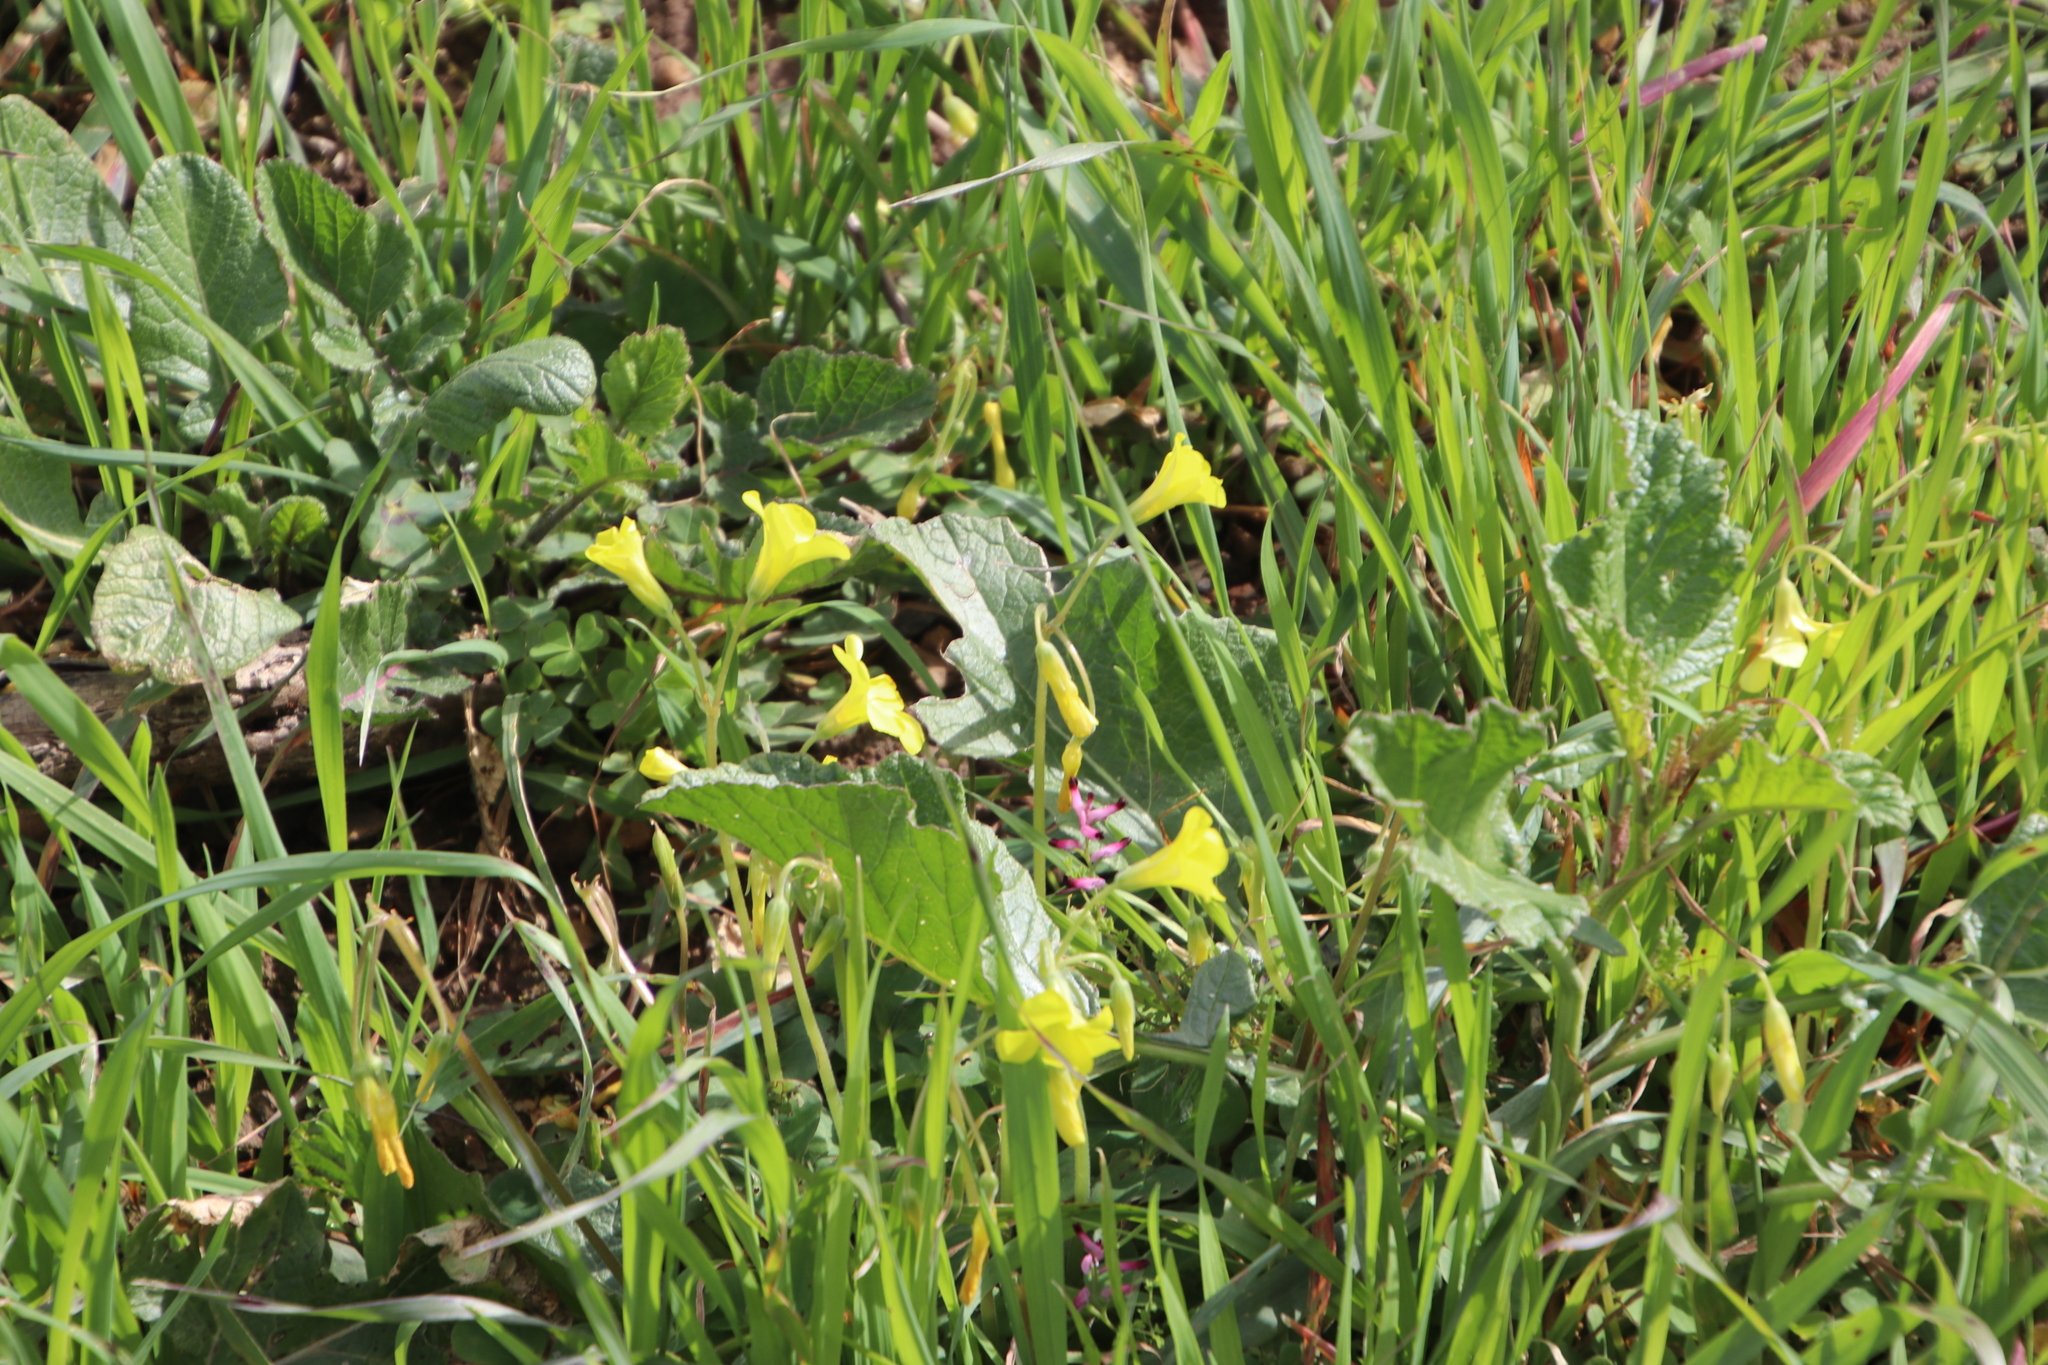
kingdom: Plantae
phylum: Tracheophyta
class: Magnoliopsida
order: Oxalidales
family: Oxalidaceae
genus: Oxalis
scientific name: Oxalis compressa
